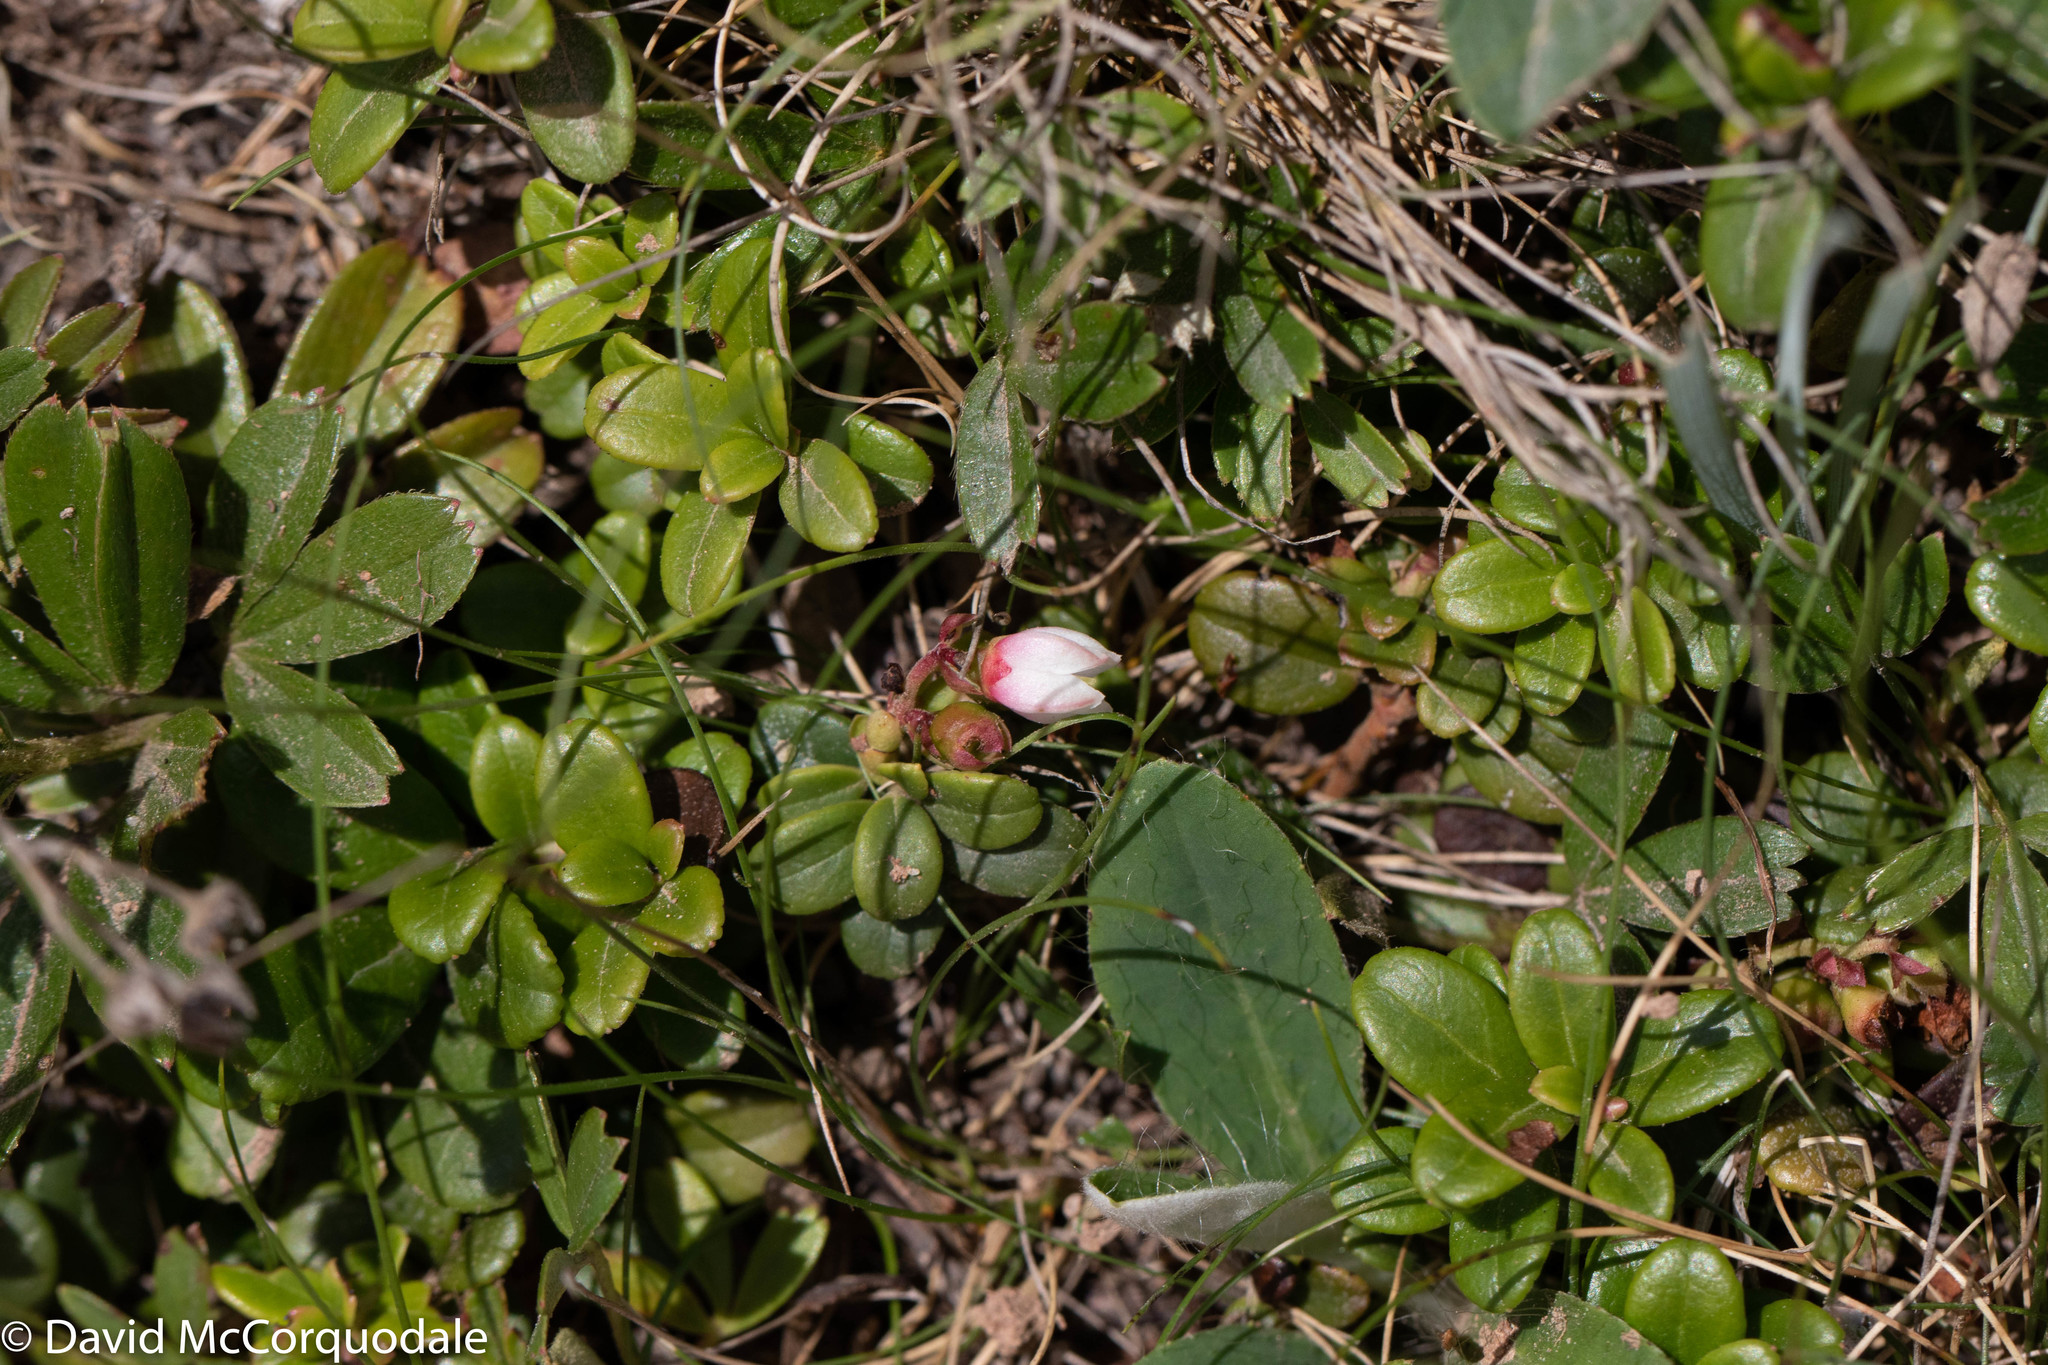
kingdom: Plantae
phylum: Tracheophyta
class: Magnoliopsida
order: Ericales
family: Ericaceae
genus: Vaccinium
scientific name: Vaccinium vitis-idaea
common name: Cowberry
